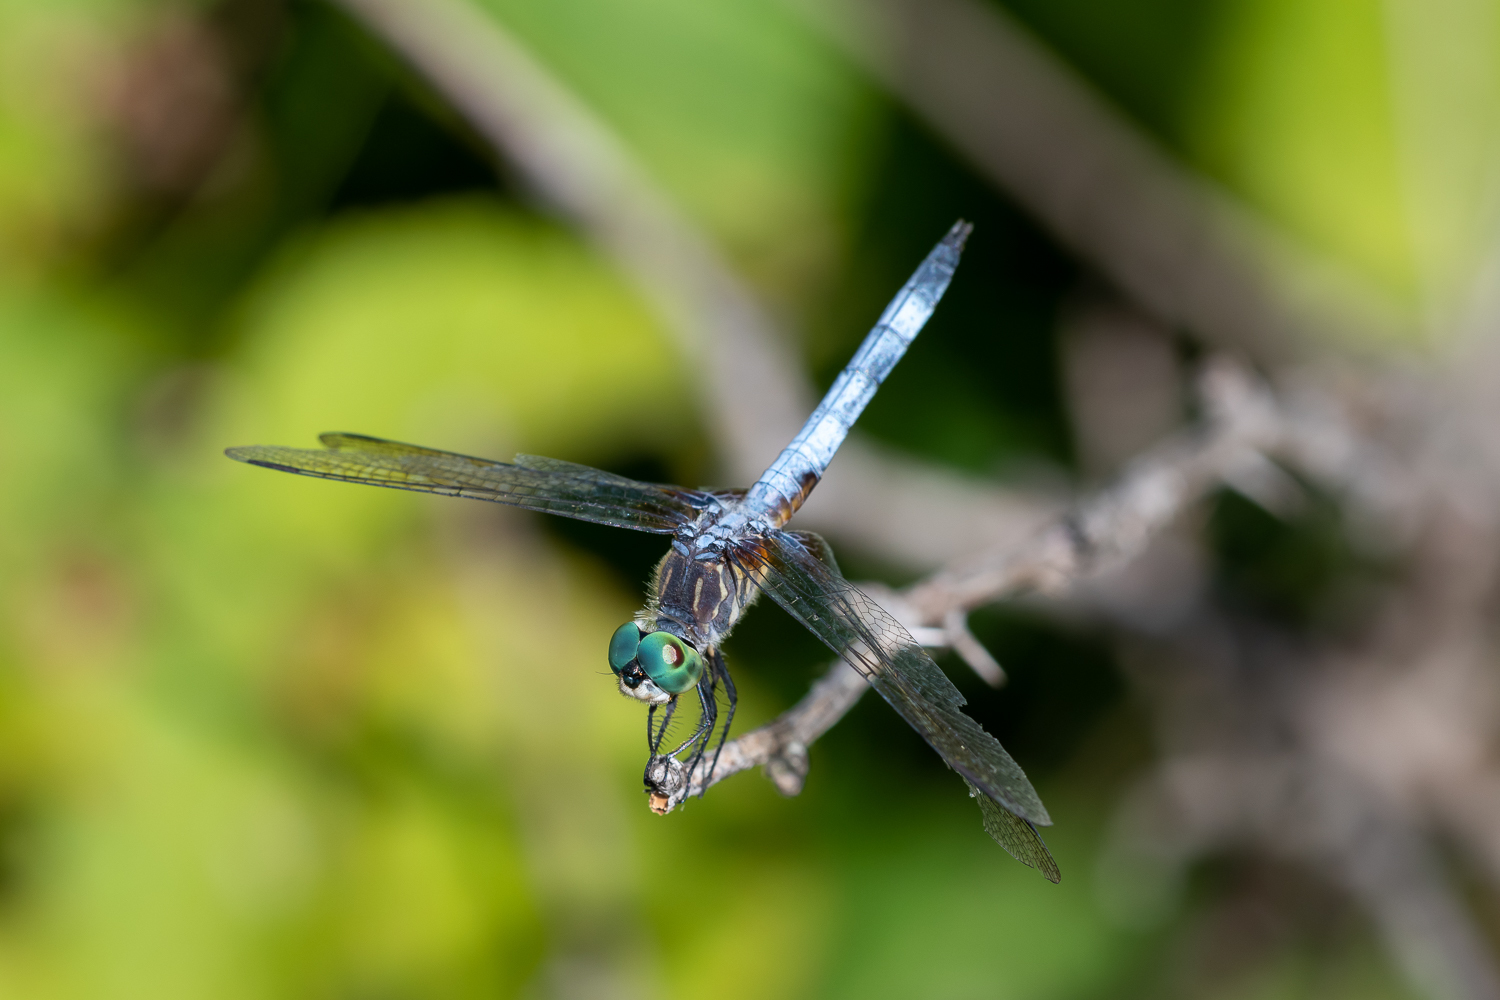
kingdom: Animalia
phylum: Arthropoda
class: Insecta
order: Odonata
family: Libellulidae
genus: Pachydiplax
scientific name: Pachydiplax longipennis
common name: Blue dasher
